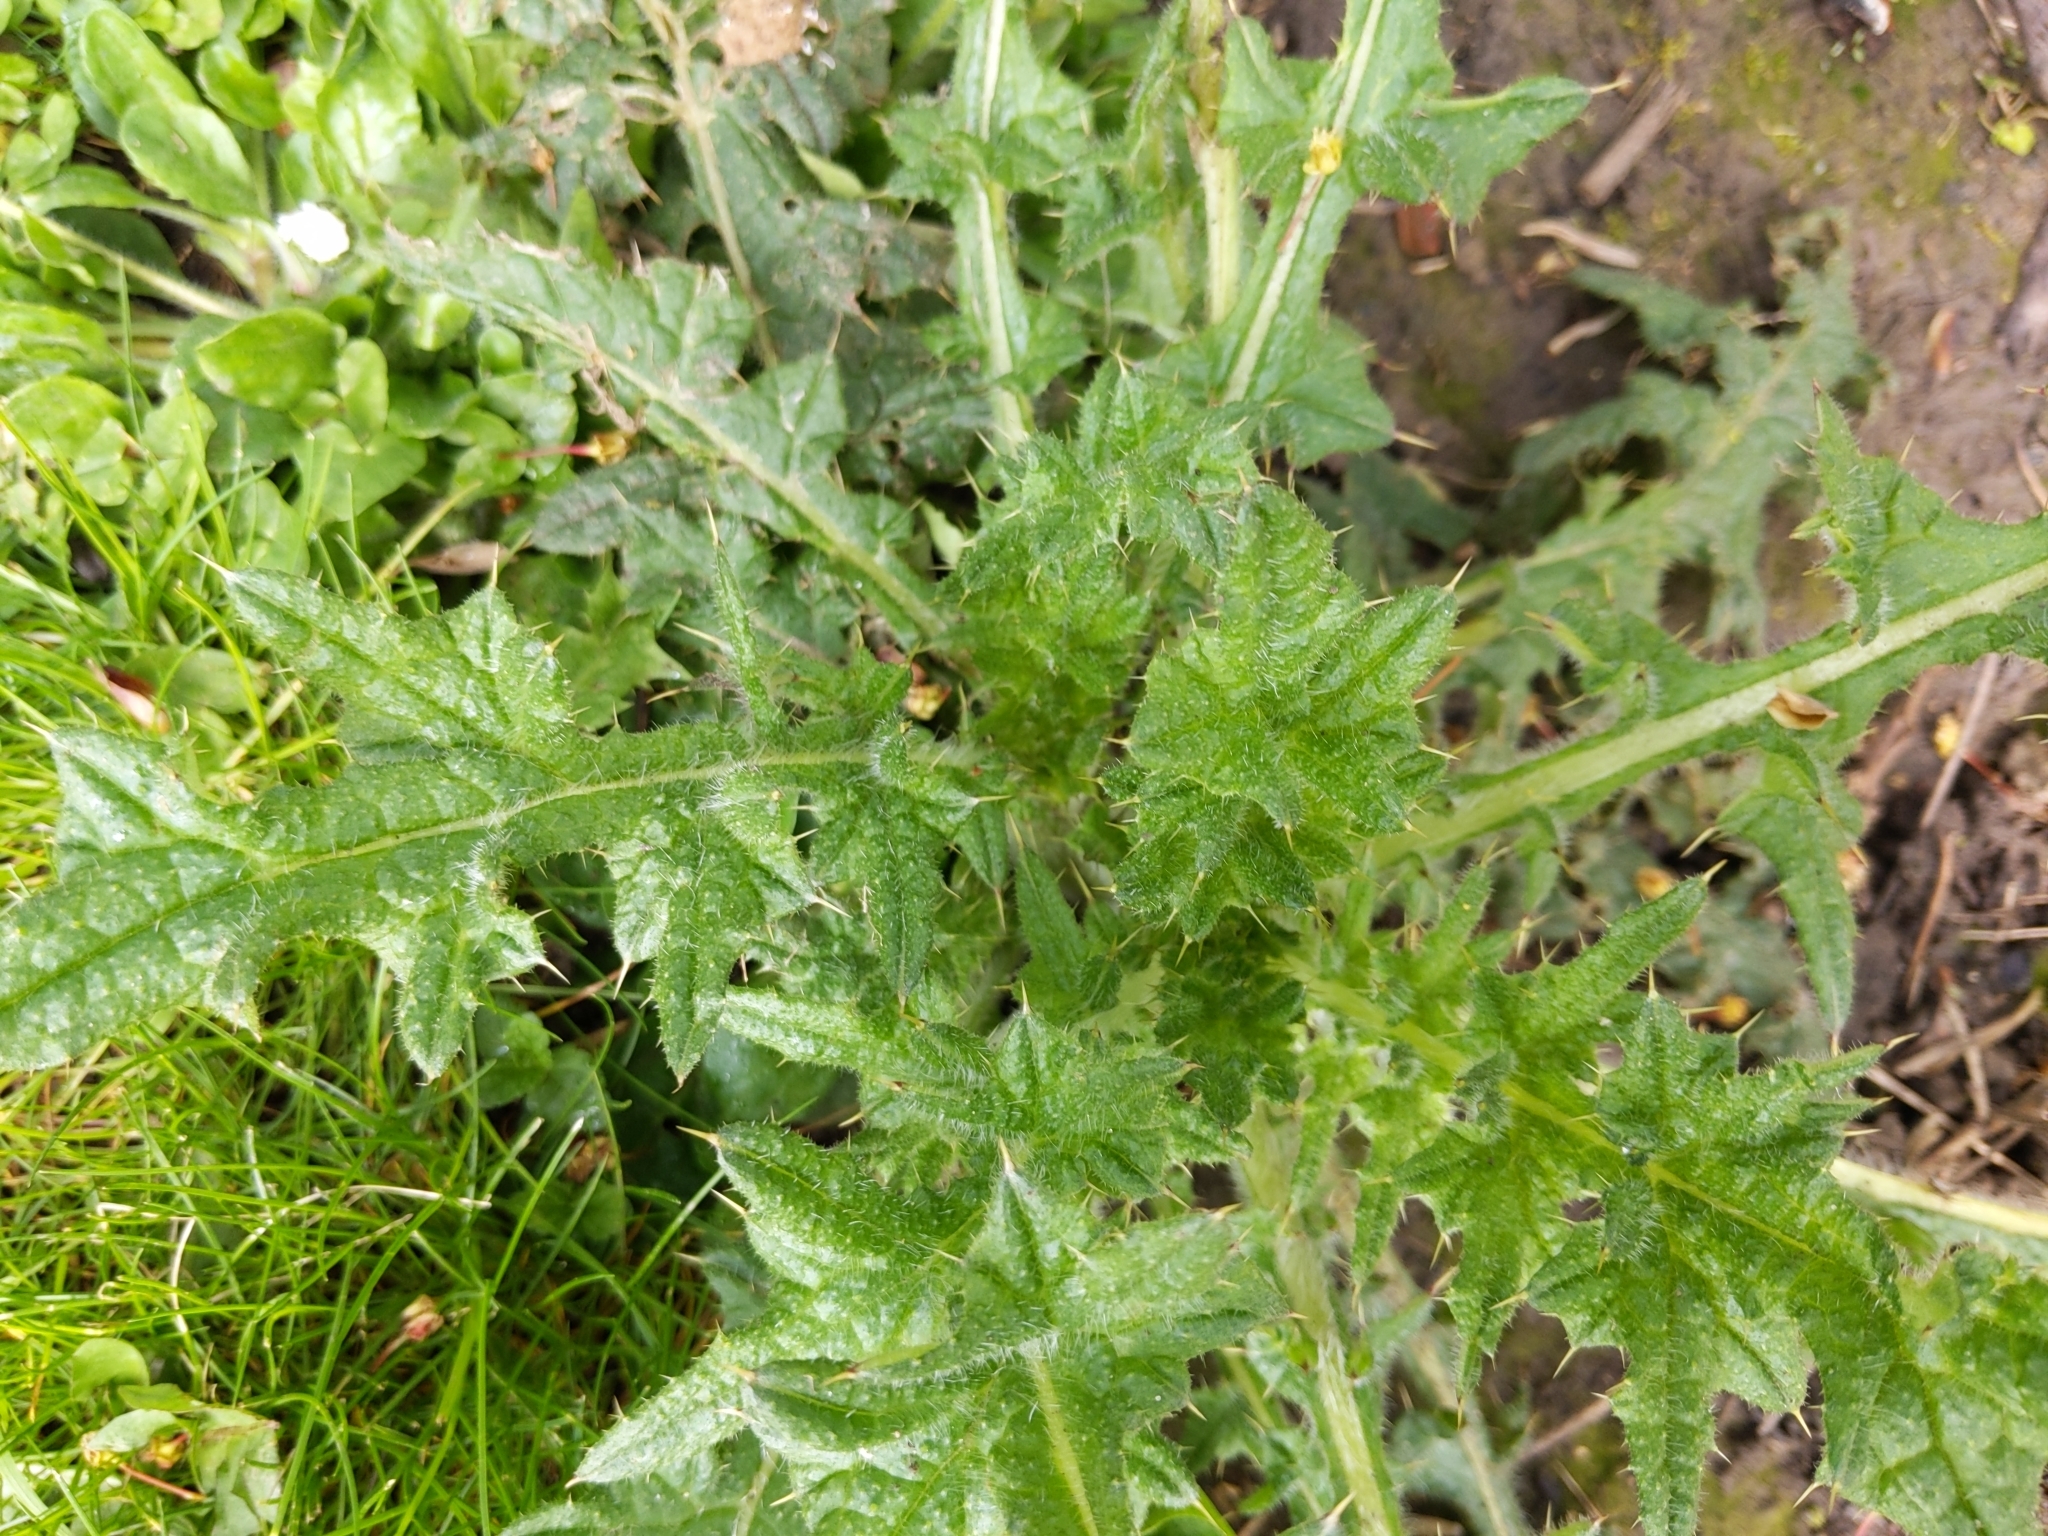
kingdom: Plantae
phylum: Tracheophyta
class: Magnoliopsida
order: Asterales
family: Asteraceae
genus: Cirsium
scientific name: Cirsium vulgare
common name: Bull thistle
